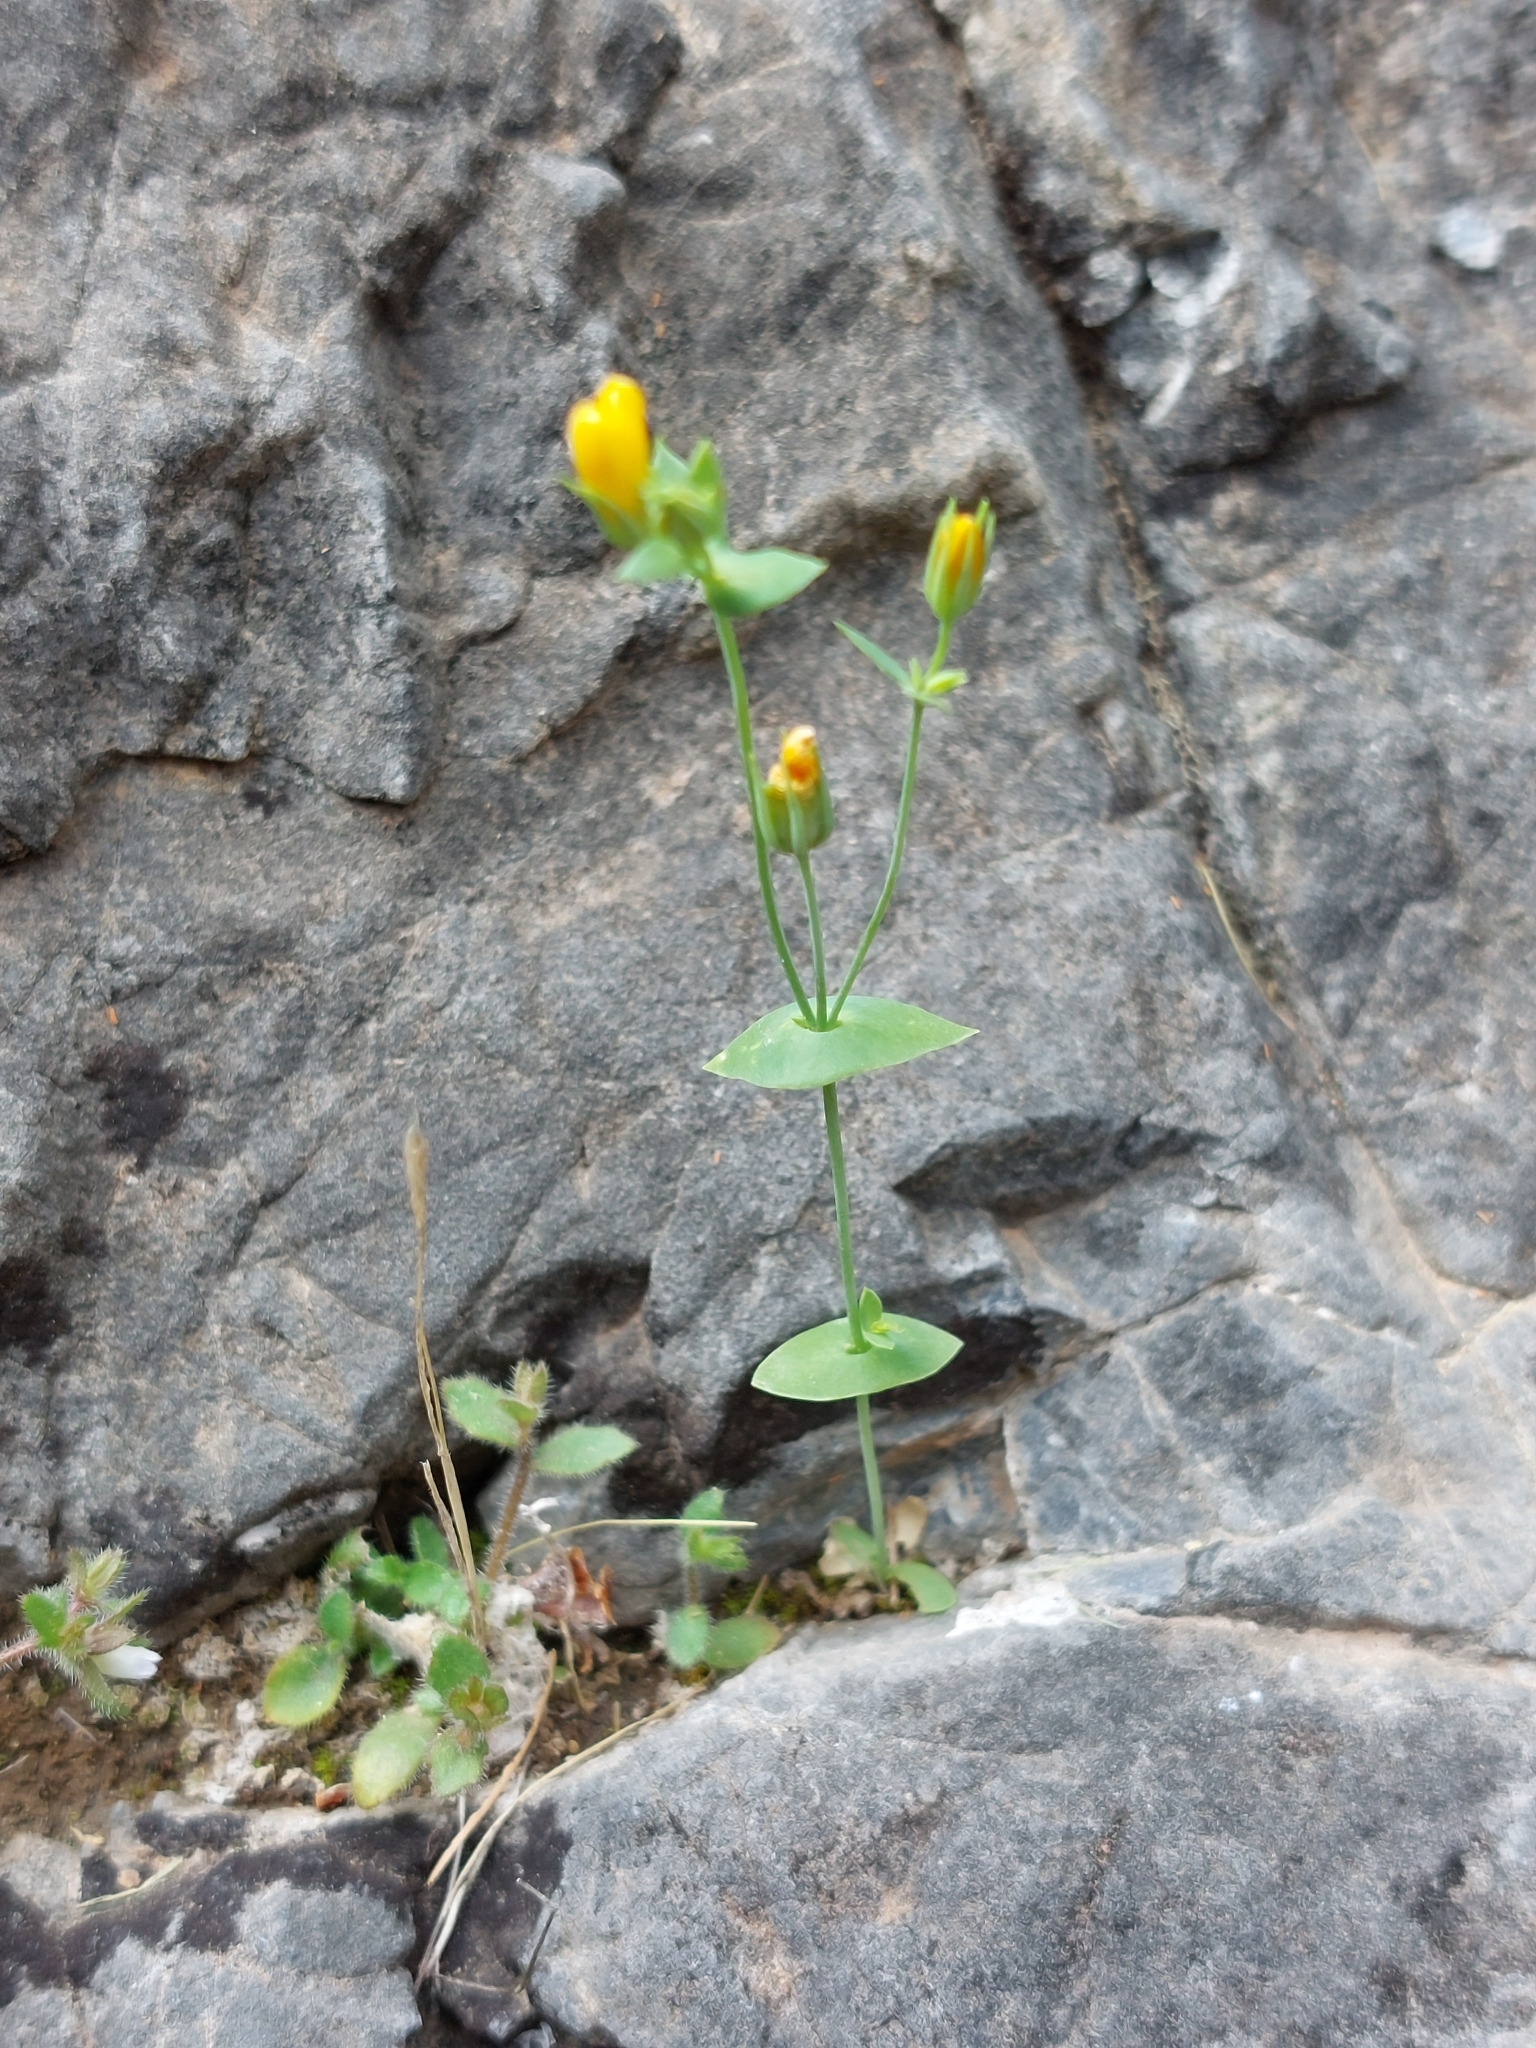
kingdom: Plantae
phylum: Tracheophyta
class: Magnoliopsida
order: Gentianales
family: Gentianaceae
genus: Blackstonia
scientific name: Blackstonia perfoliata
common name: Yellow-wort
